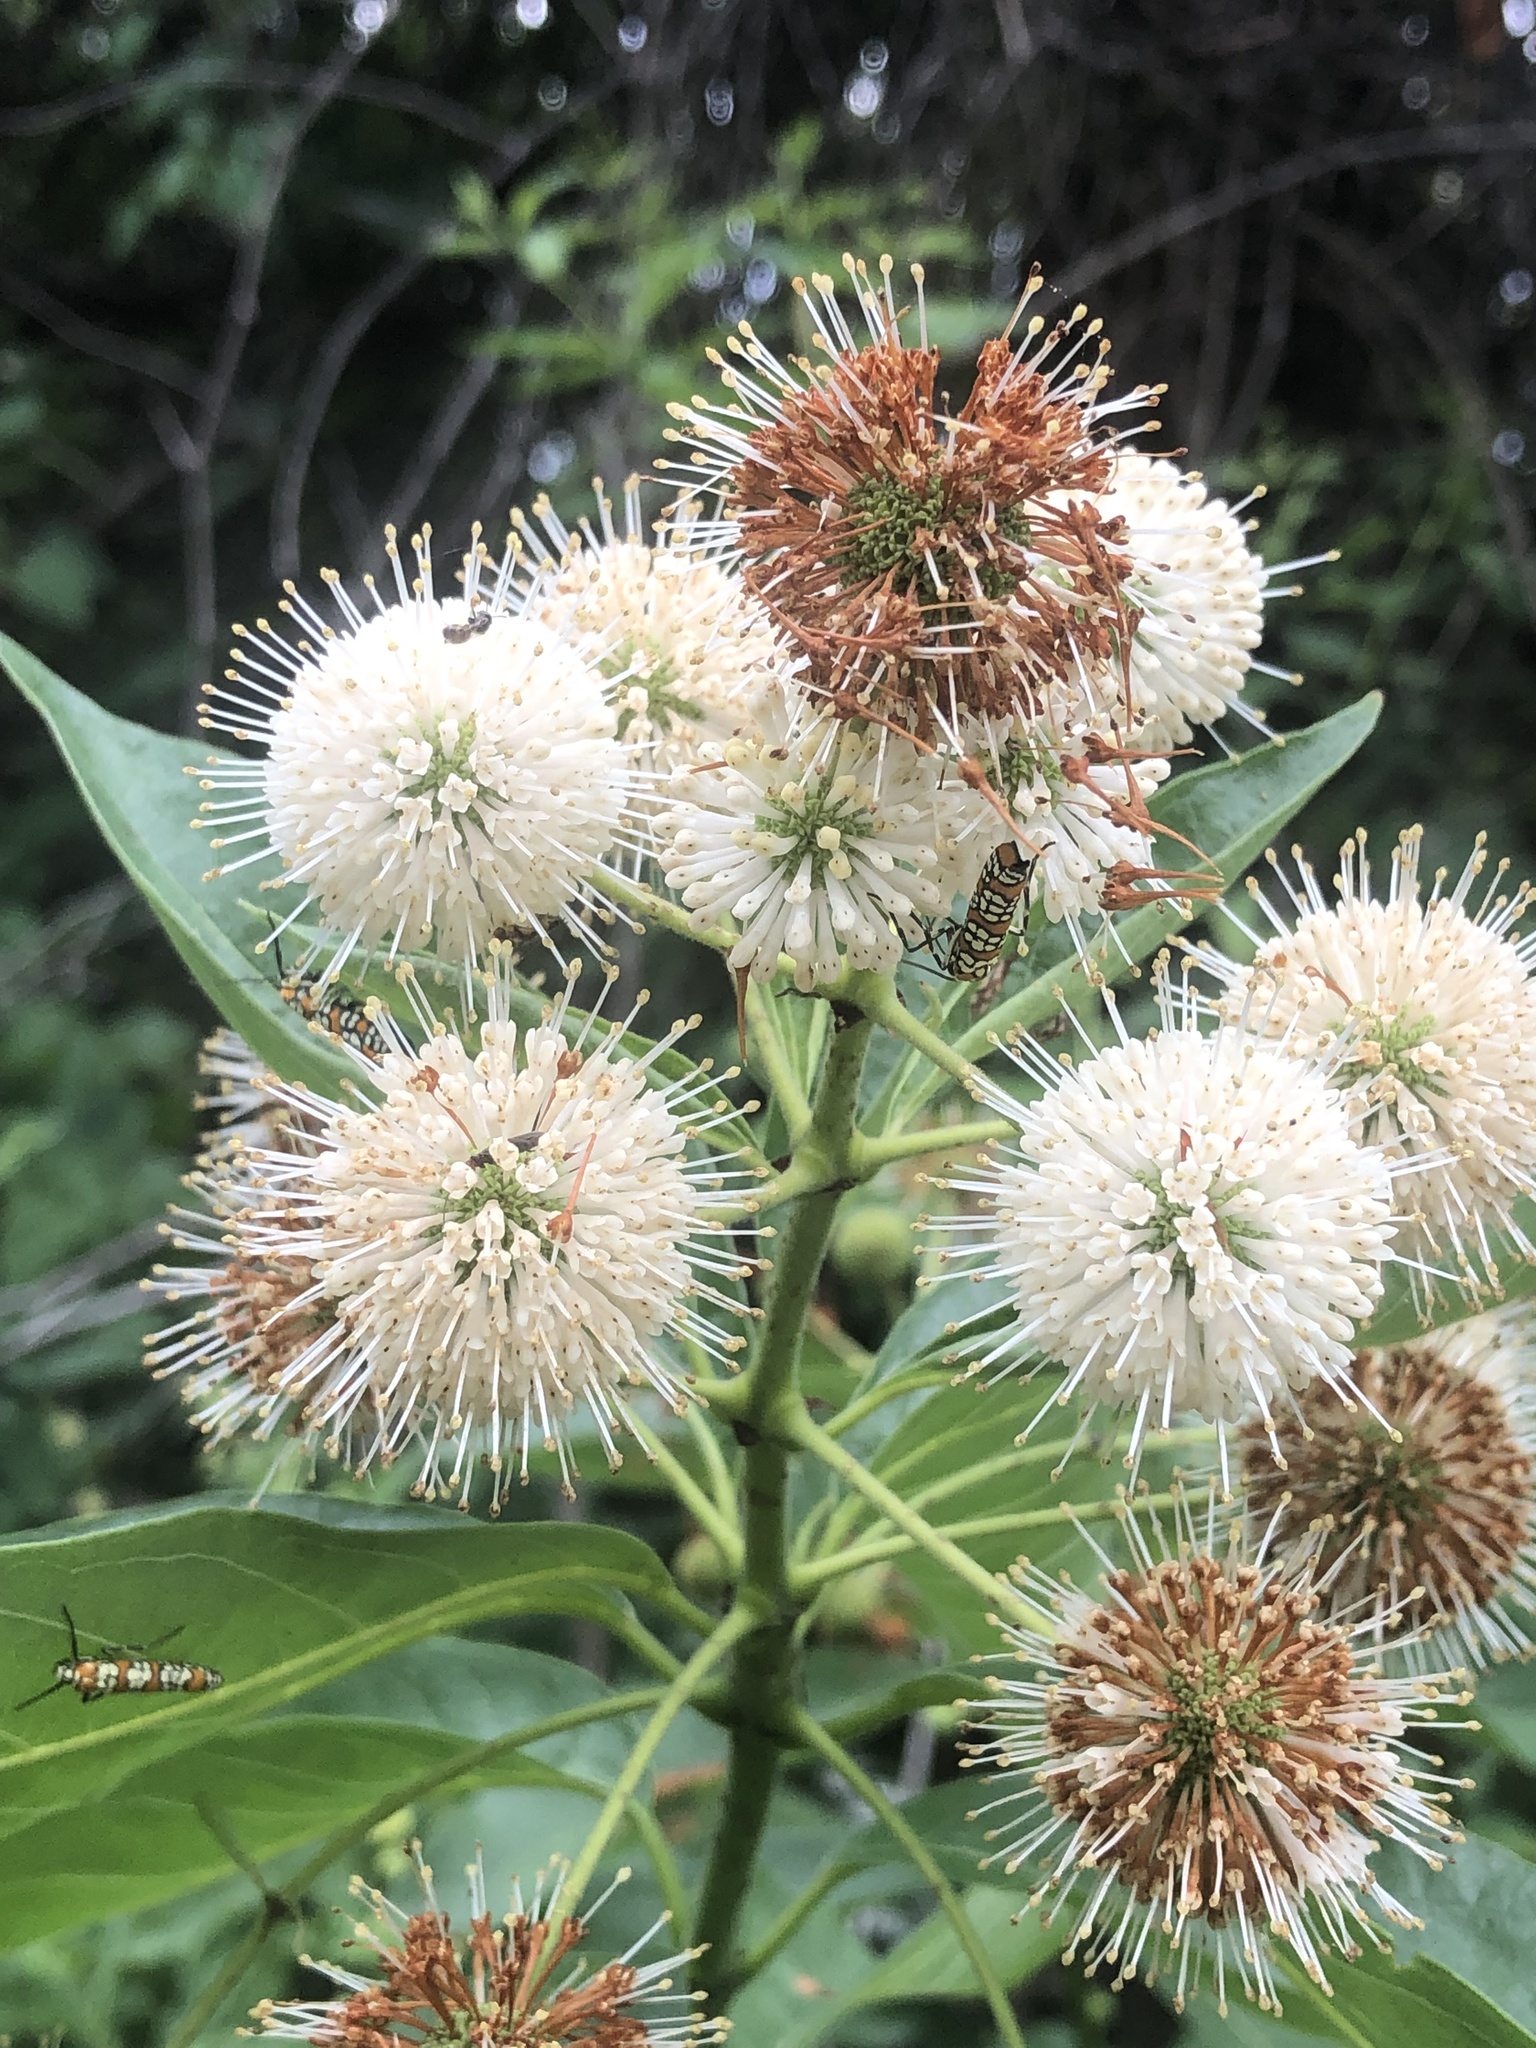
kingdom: Plantae
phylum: Tracheophyta
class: Magnoliopsida
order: Gentianales
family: Rubiaceae
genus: Cephalanthus
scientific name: Cephalanthus occidentalis
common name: Button-willow
